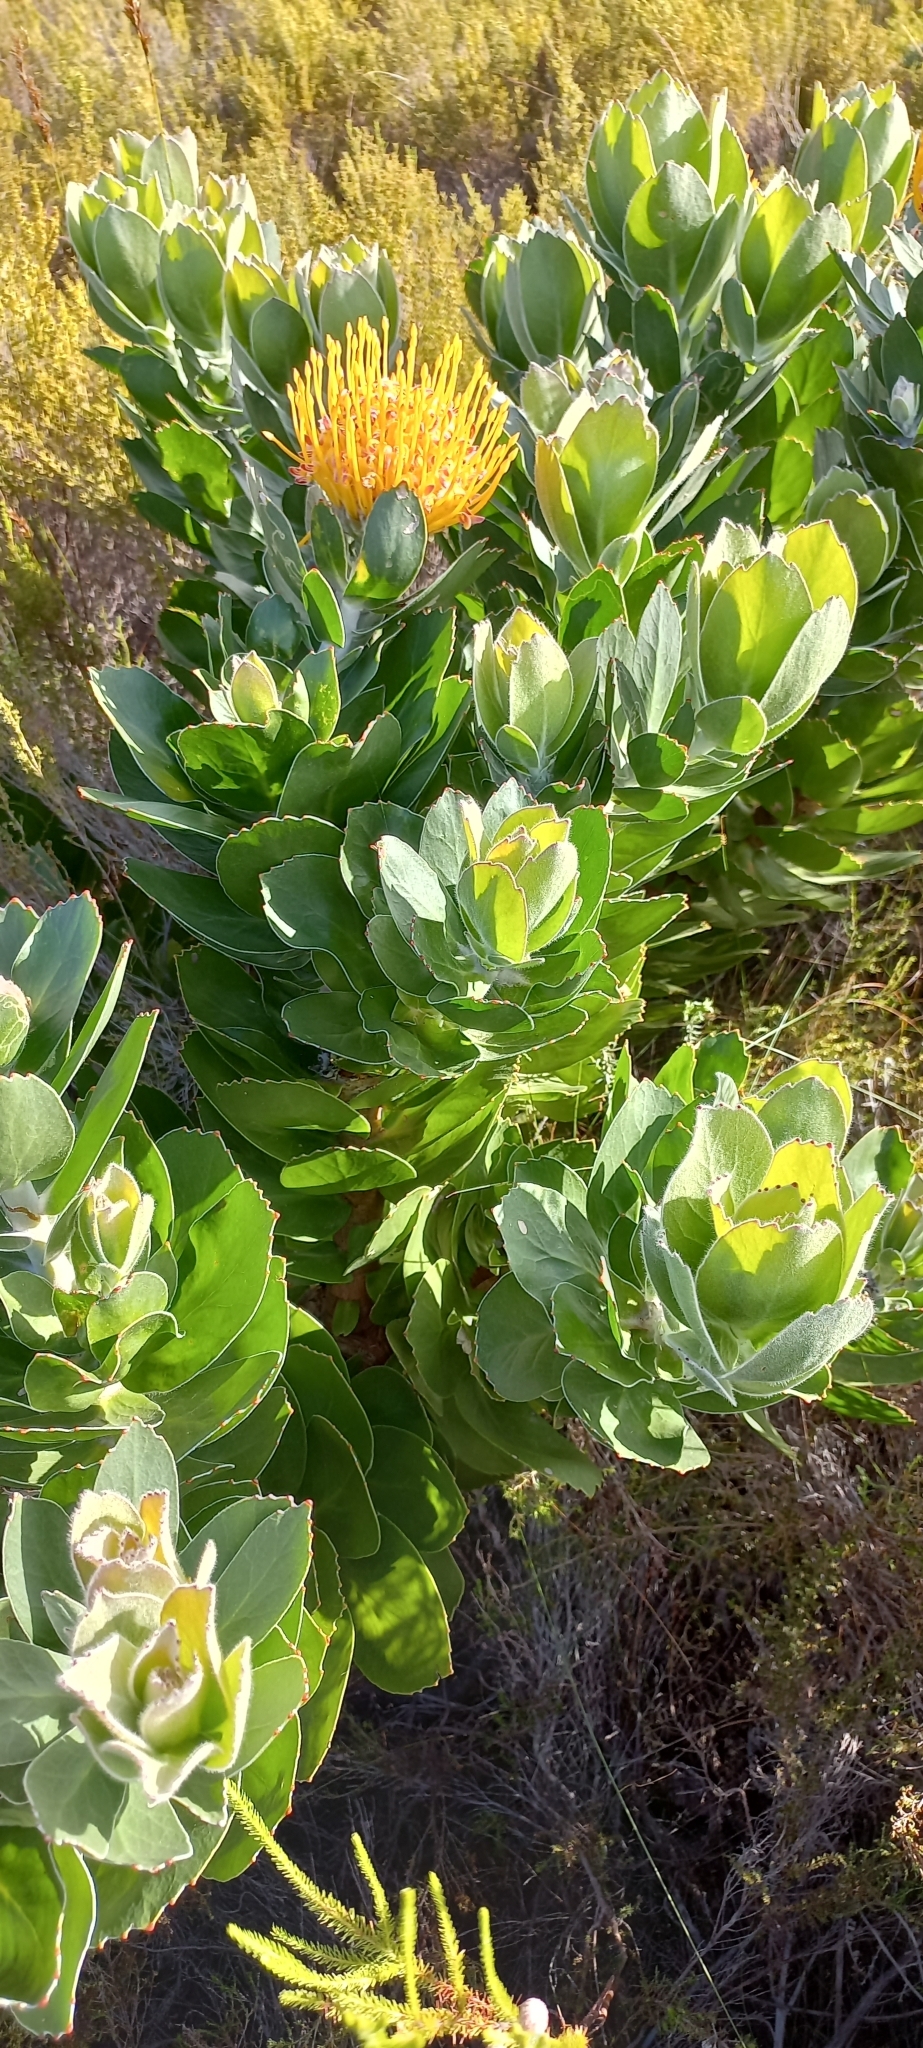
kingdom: Plantae
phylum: Tracheophyta
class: Magnoliopsida
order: Proteales
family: Proteaceae
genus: Leucospermum
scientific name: Leucospermum conocarpodendron
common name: Tree pincushion
